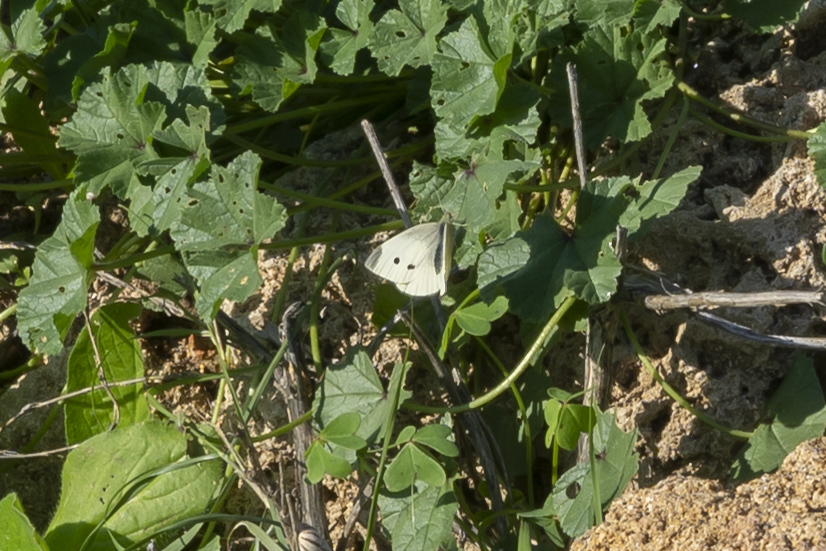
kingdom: Animalia
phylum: Arthropoda
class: Insecta
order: Lepidoptera
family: Pieridae
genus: Pieris
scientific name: Pieris rapae
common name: Small white
